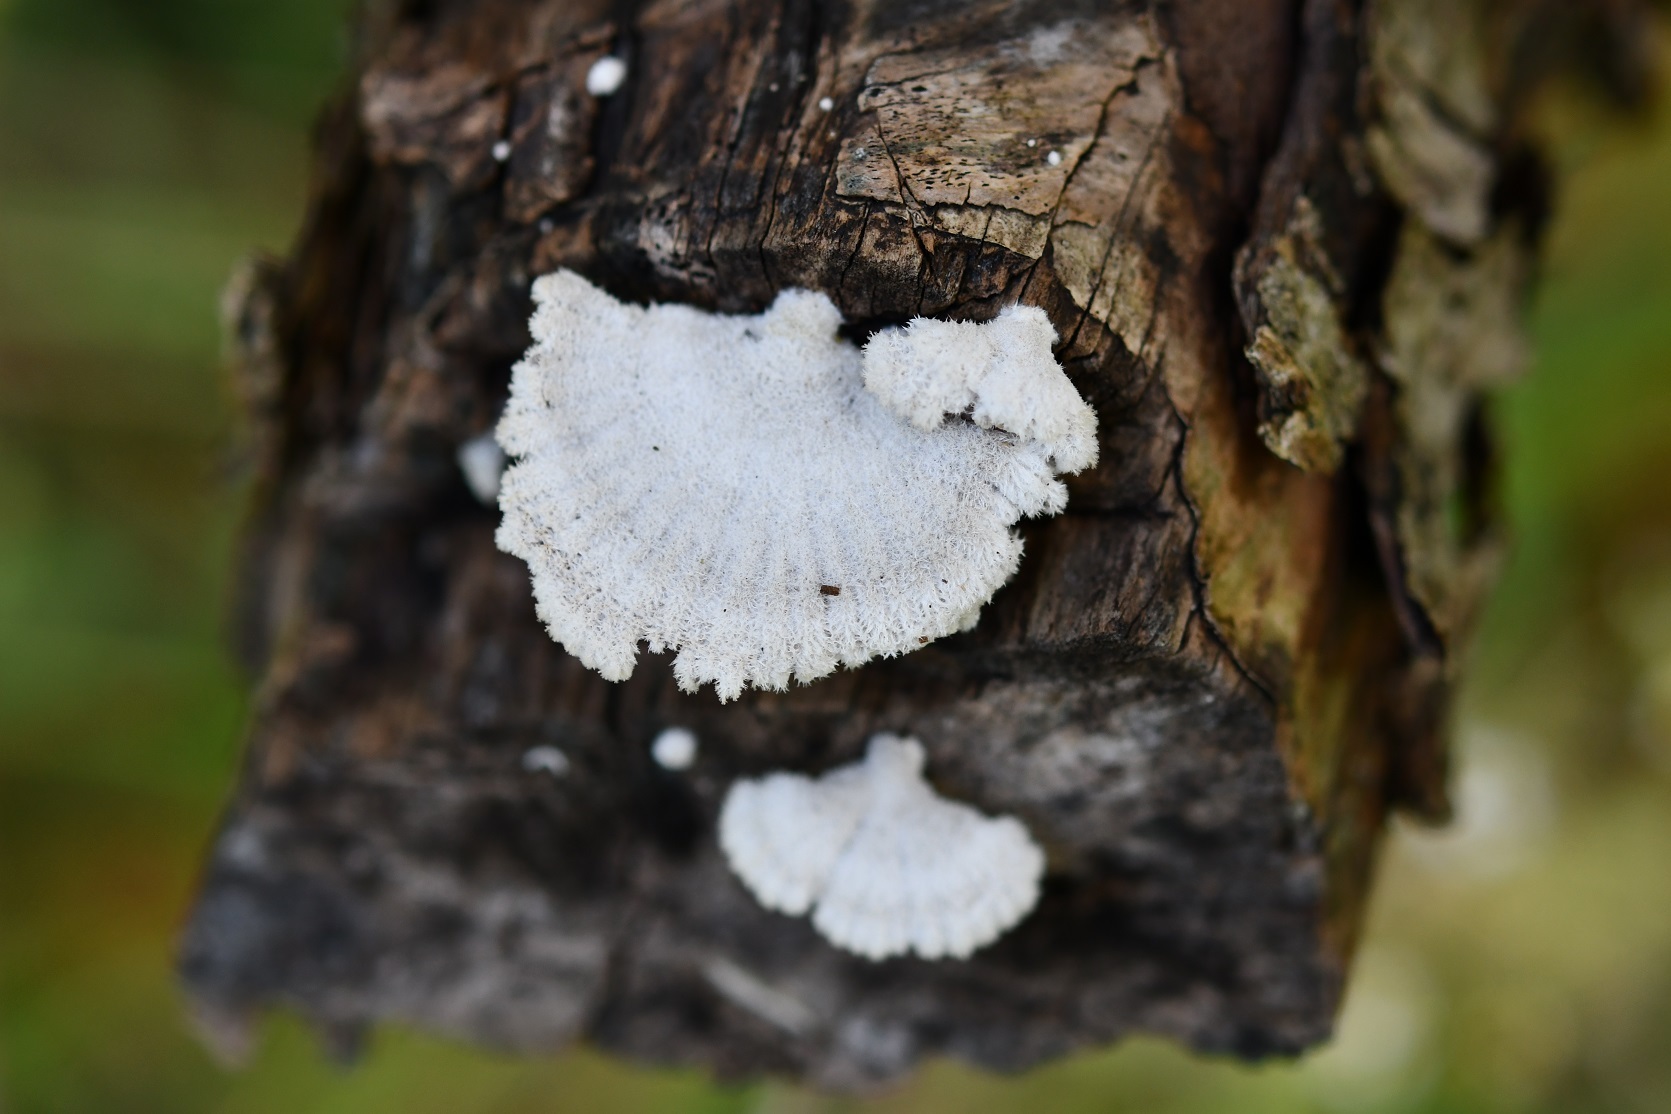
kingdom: Fungi
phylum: Basidiomycota
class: Agaricomycetes
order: Agaricales
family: Schizophyllaceae
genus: Schizophyllum
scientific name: Schizophyllum commune
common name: Common porecrust
